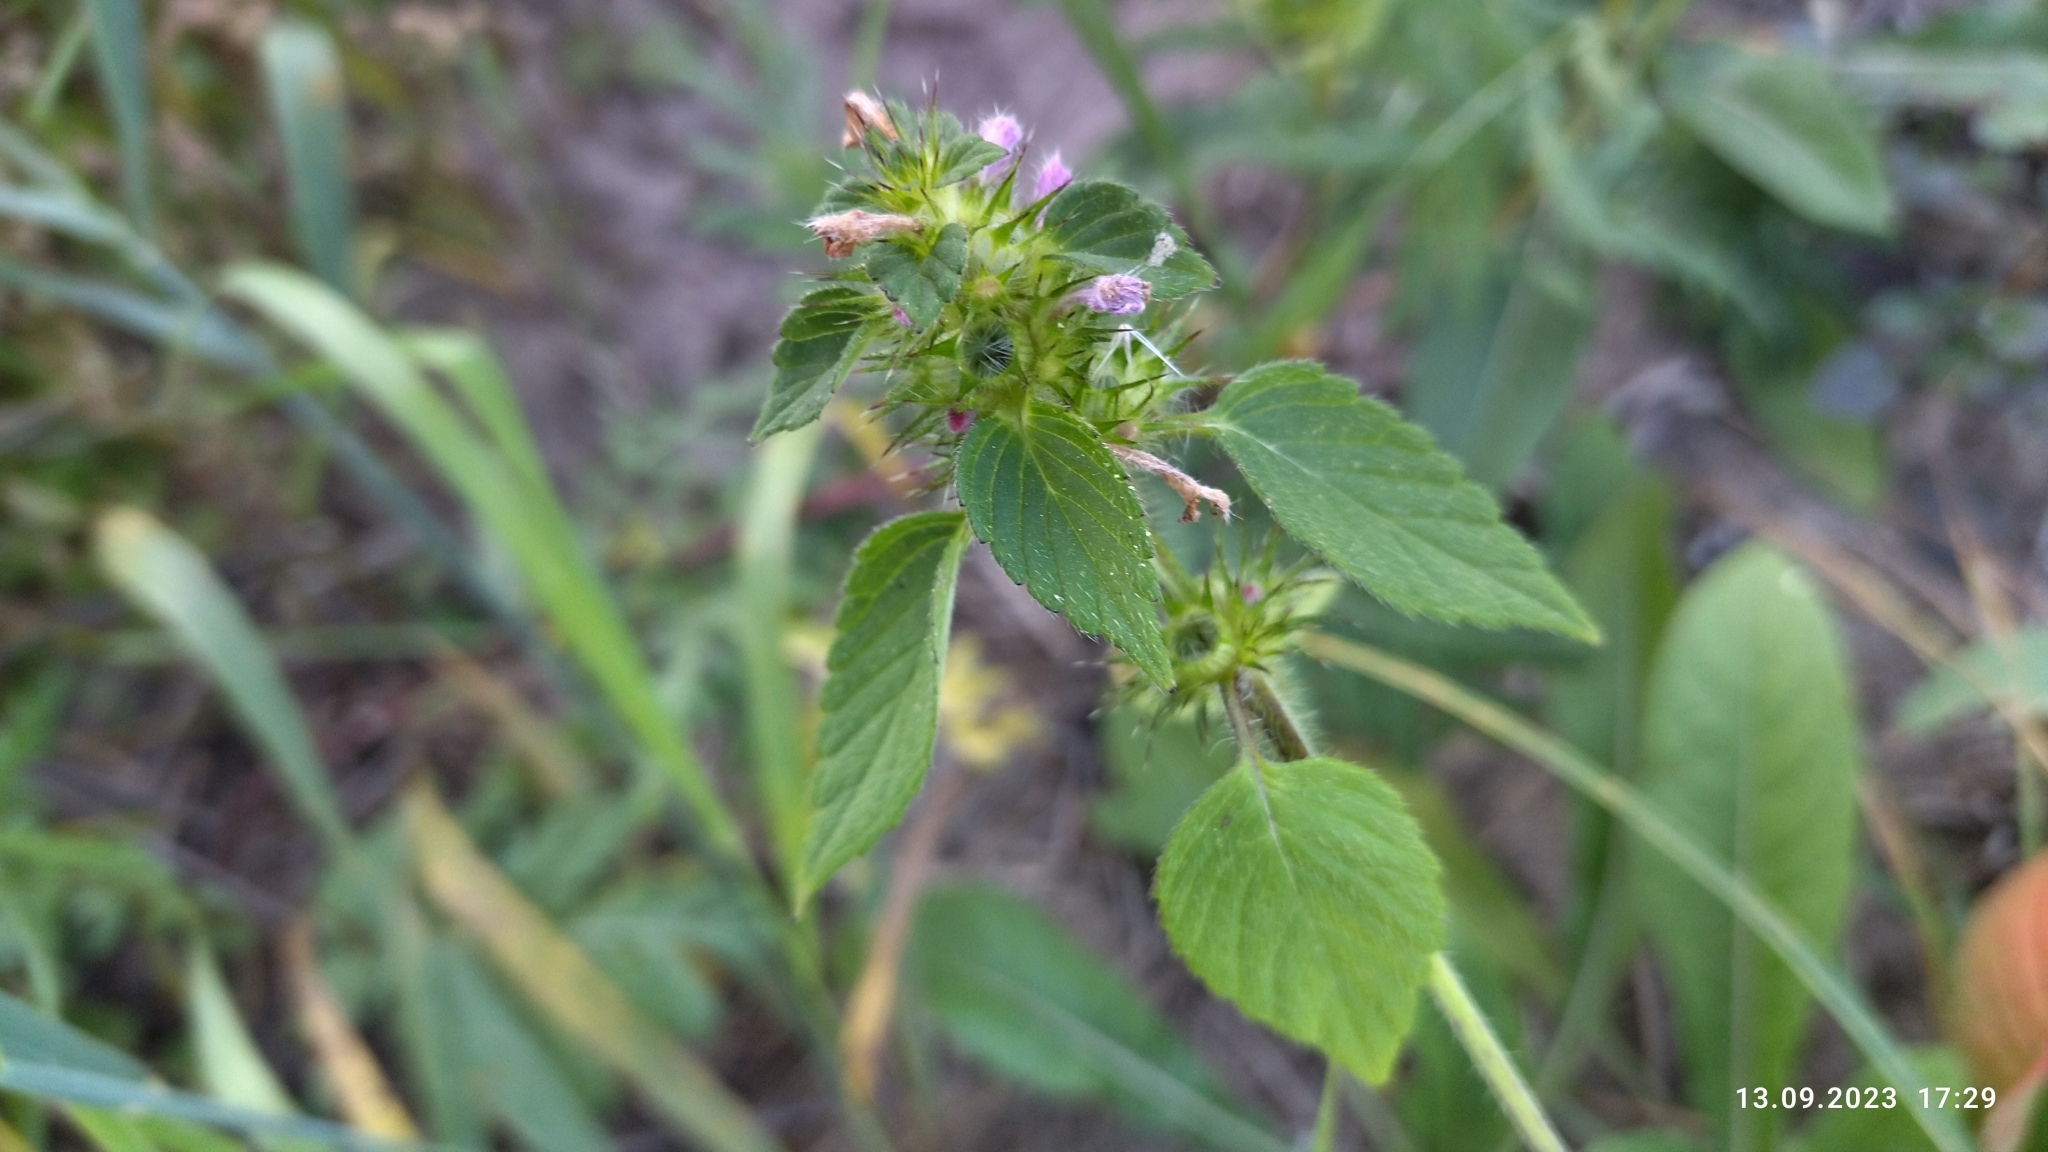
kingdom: Plantae
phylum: Tracheophyta
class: Magnoliopsida
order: Lamiales
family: Lamiaceae
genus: Galeopsis
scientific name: Galeopsis bifida
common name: Bifid hemp-nettle
